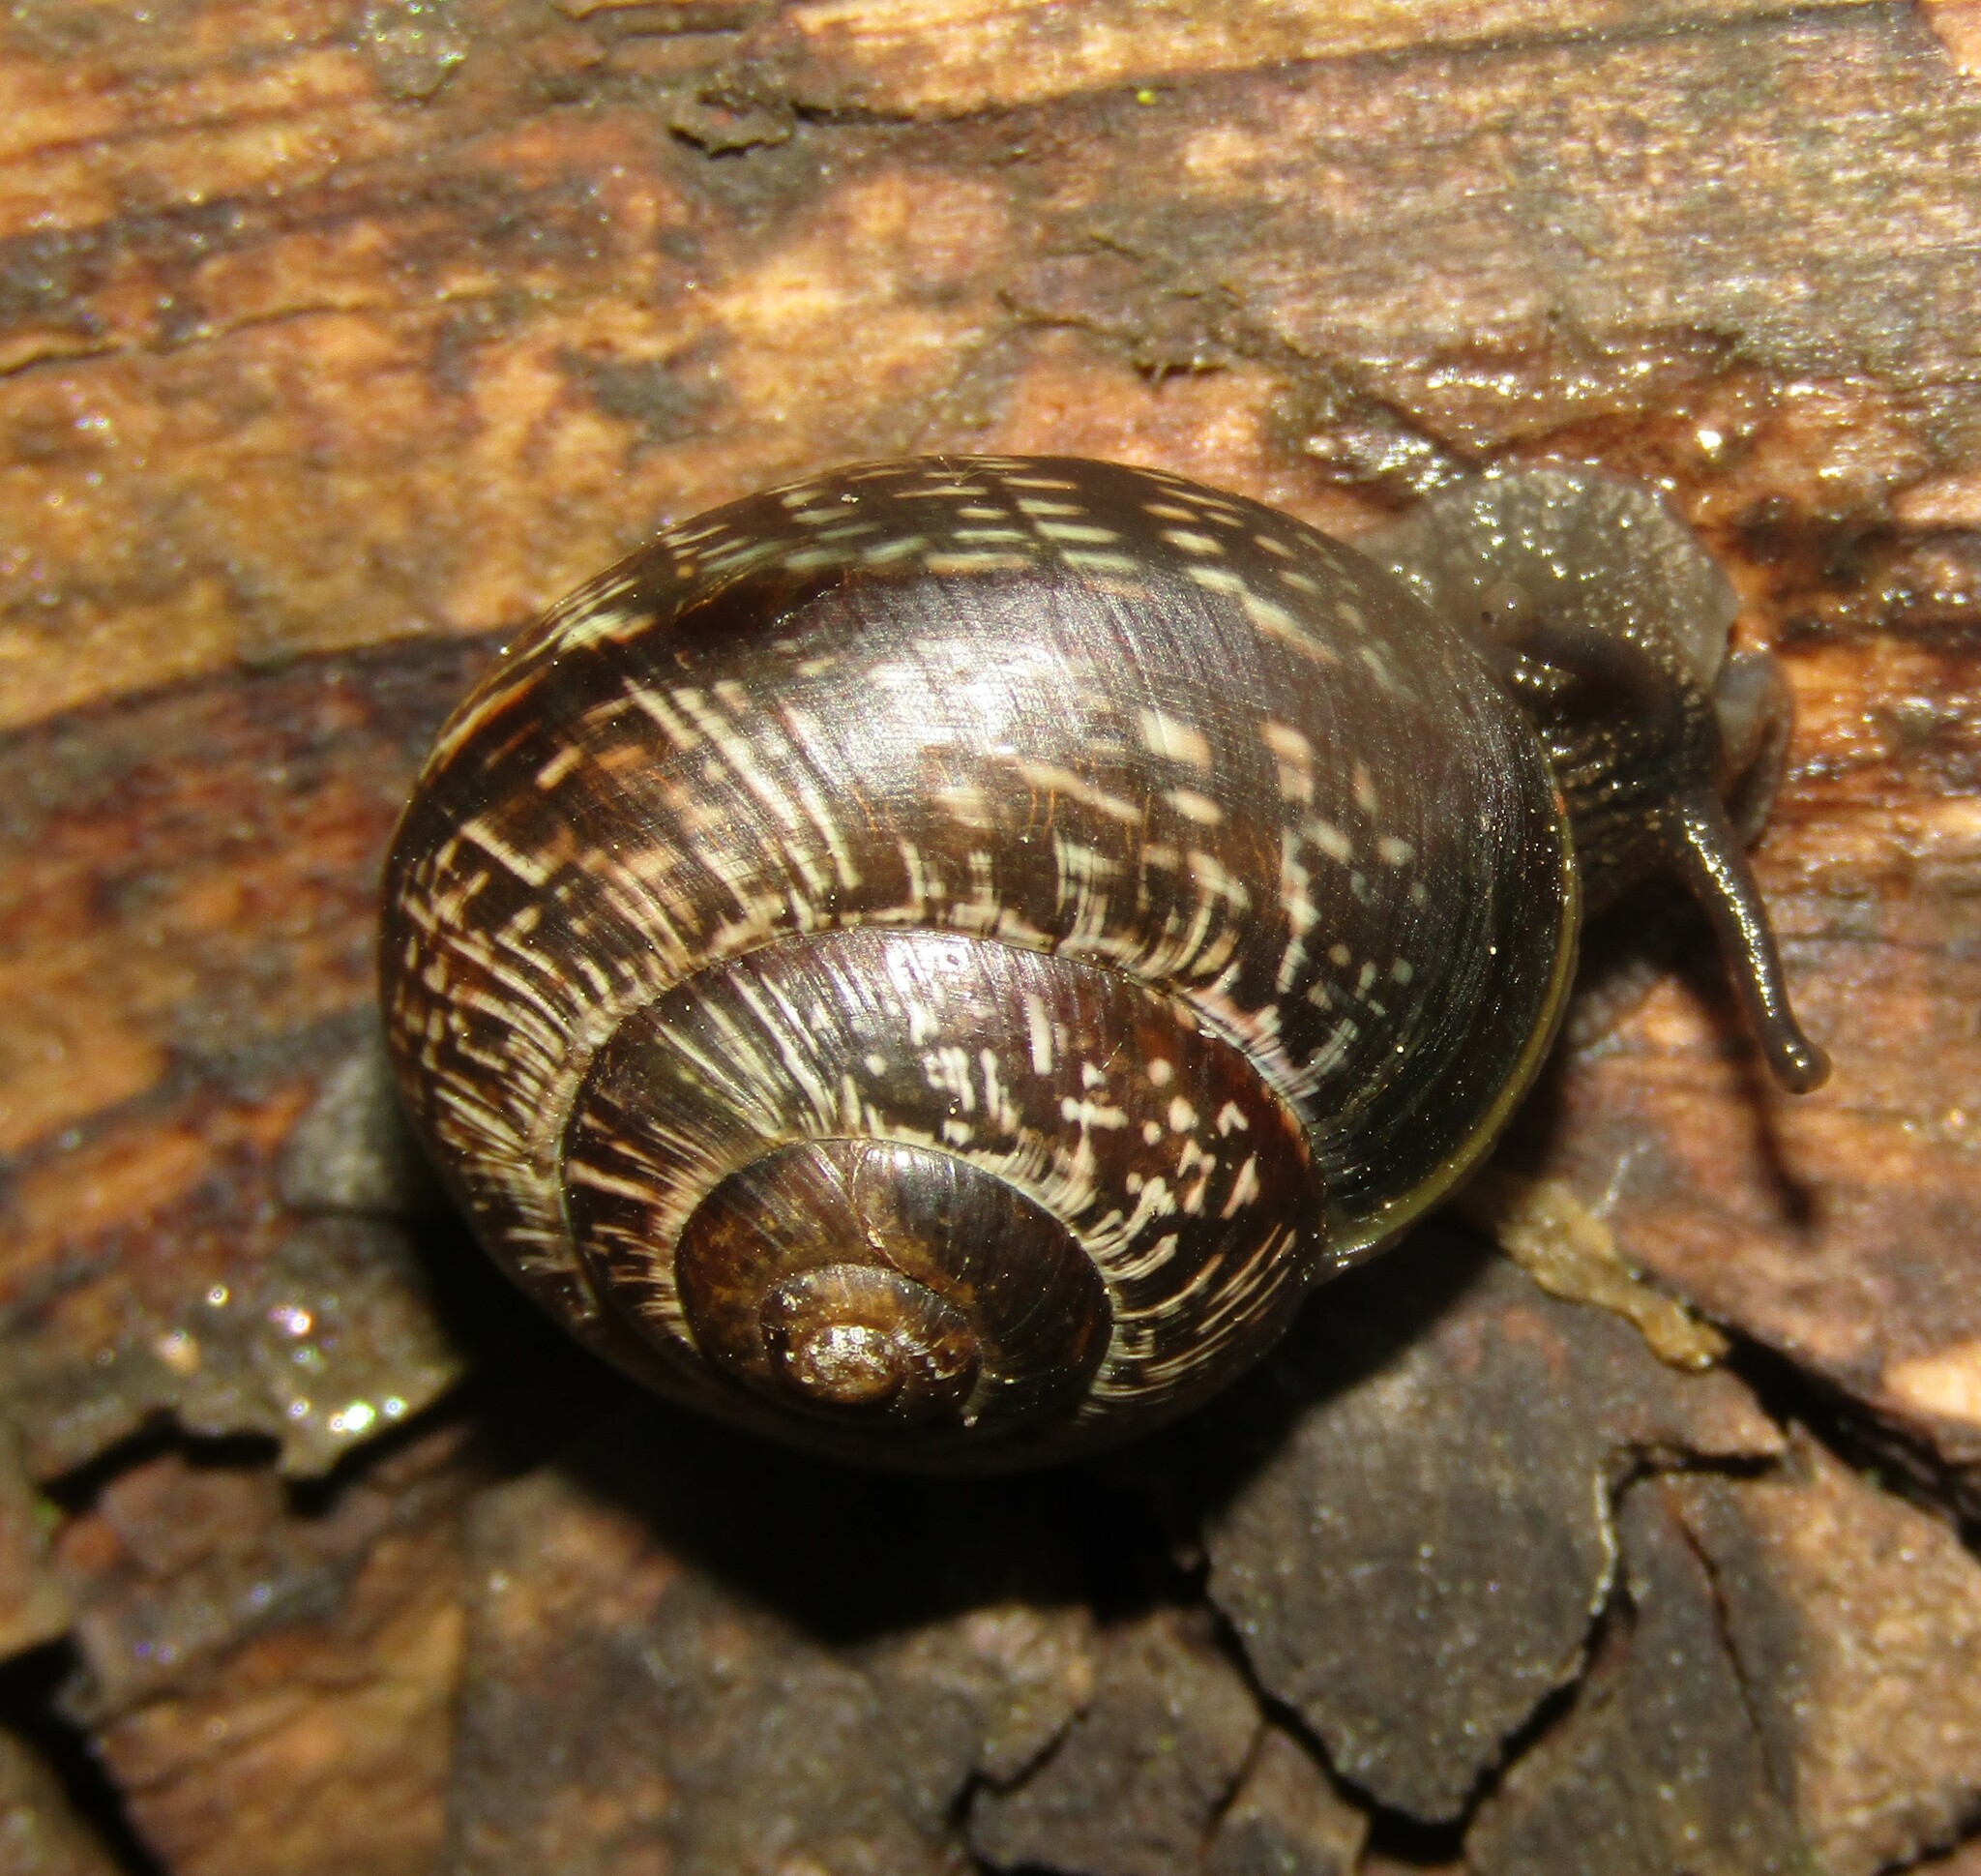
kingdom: Animalia
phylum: Mollusca
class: Gastropoda
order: Stylommatophora
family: Helicidae
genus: Arianta
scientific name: Arianta arbustorum
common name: Copse snail
